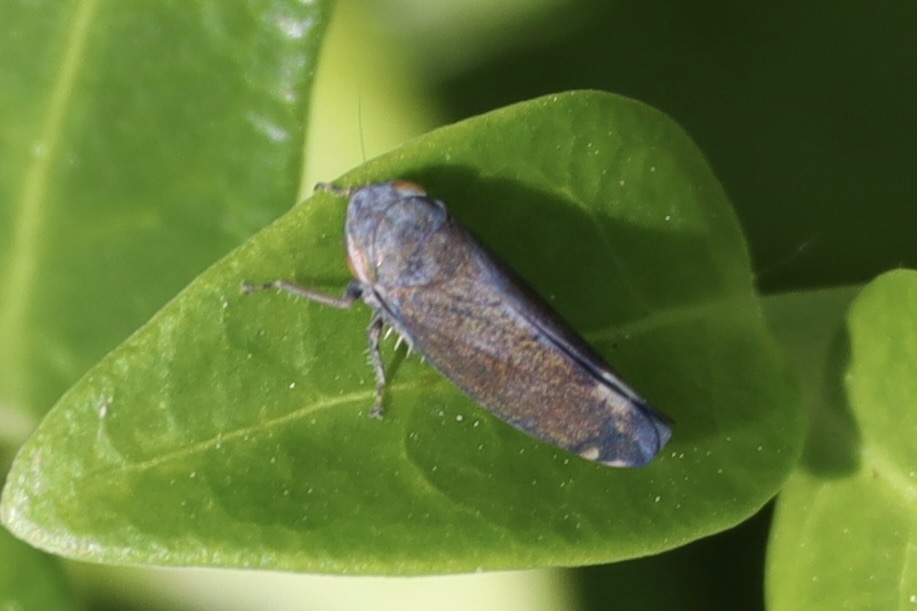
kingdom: Animalia
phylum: Arthropoda
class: Insecta
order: Hemiptera
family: Cicadellidae
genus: Fieberiella
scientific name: Fieberiella florii
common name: Flor’s leafhopper
